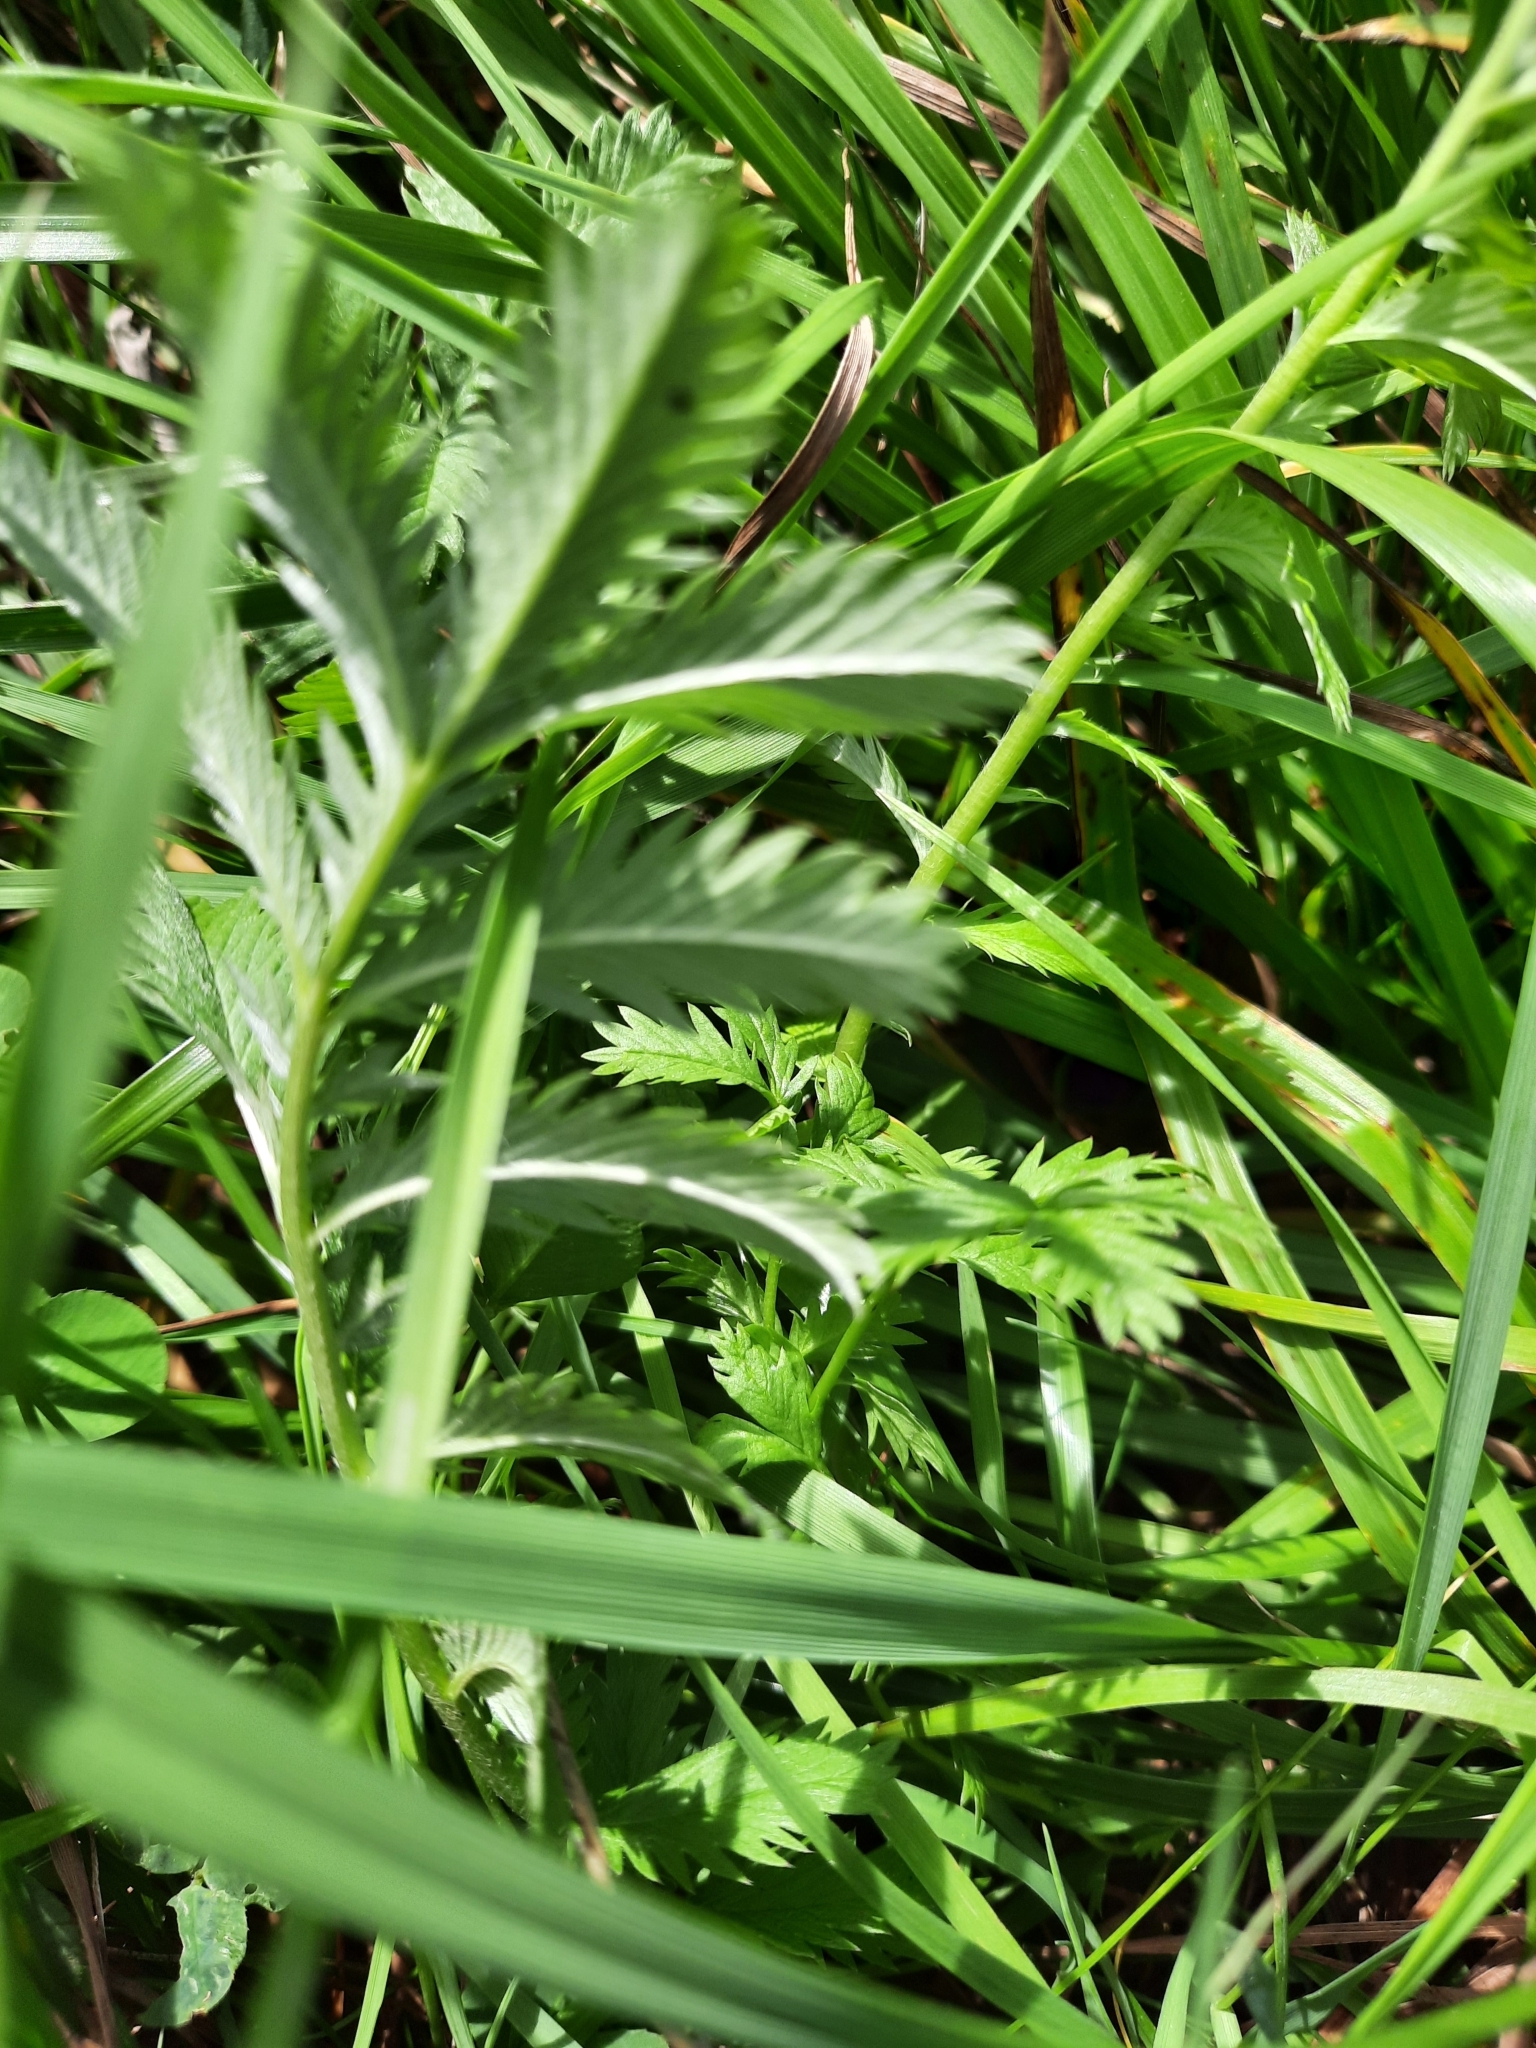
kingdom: Plantae
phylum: Tracheophyta
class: Magnoliopsida
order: Rosales
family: Rosaceae
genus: Argentina
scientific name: Argentina anserina
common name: Common silverweed
